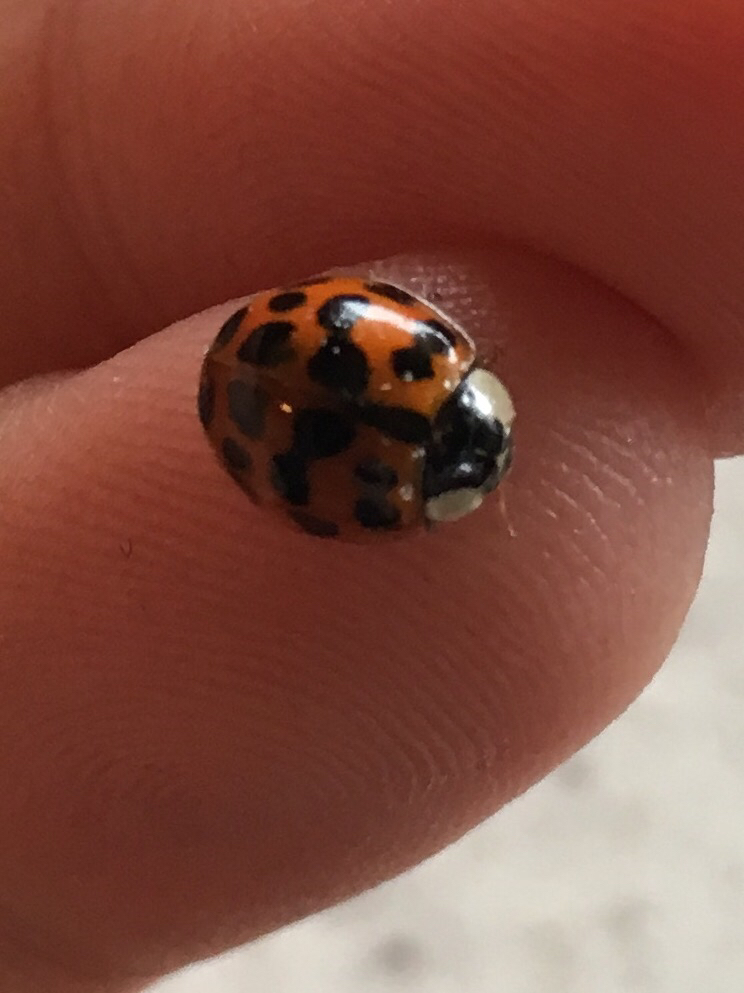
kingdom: Animalia
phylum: Arthropoda
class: Insecta
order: Coleoptera
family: Coccinellidae
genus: Harmonia
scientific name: Harmonia axyridis
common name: Harlequin ladybird
